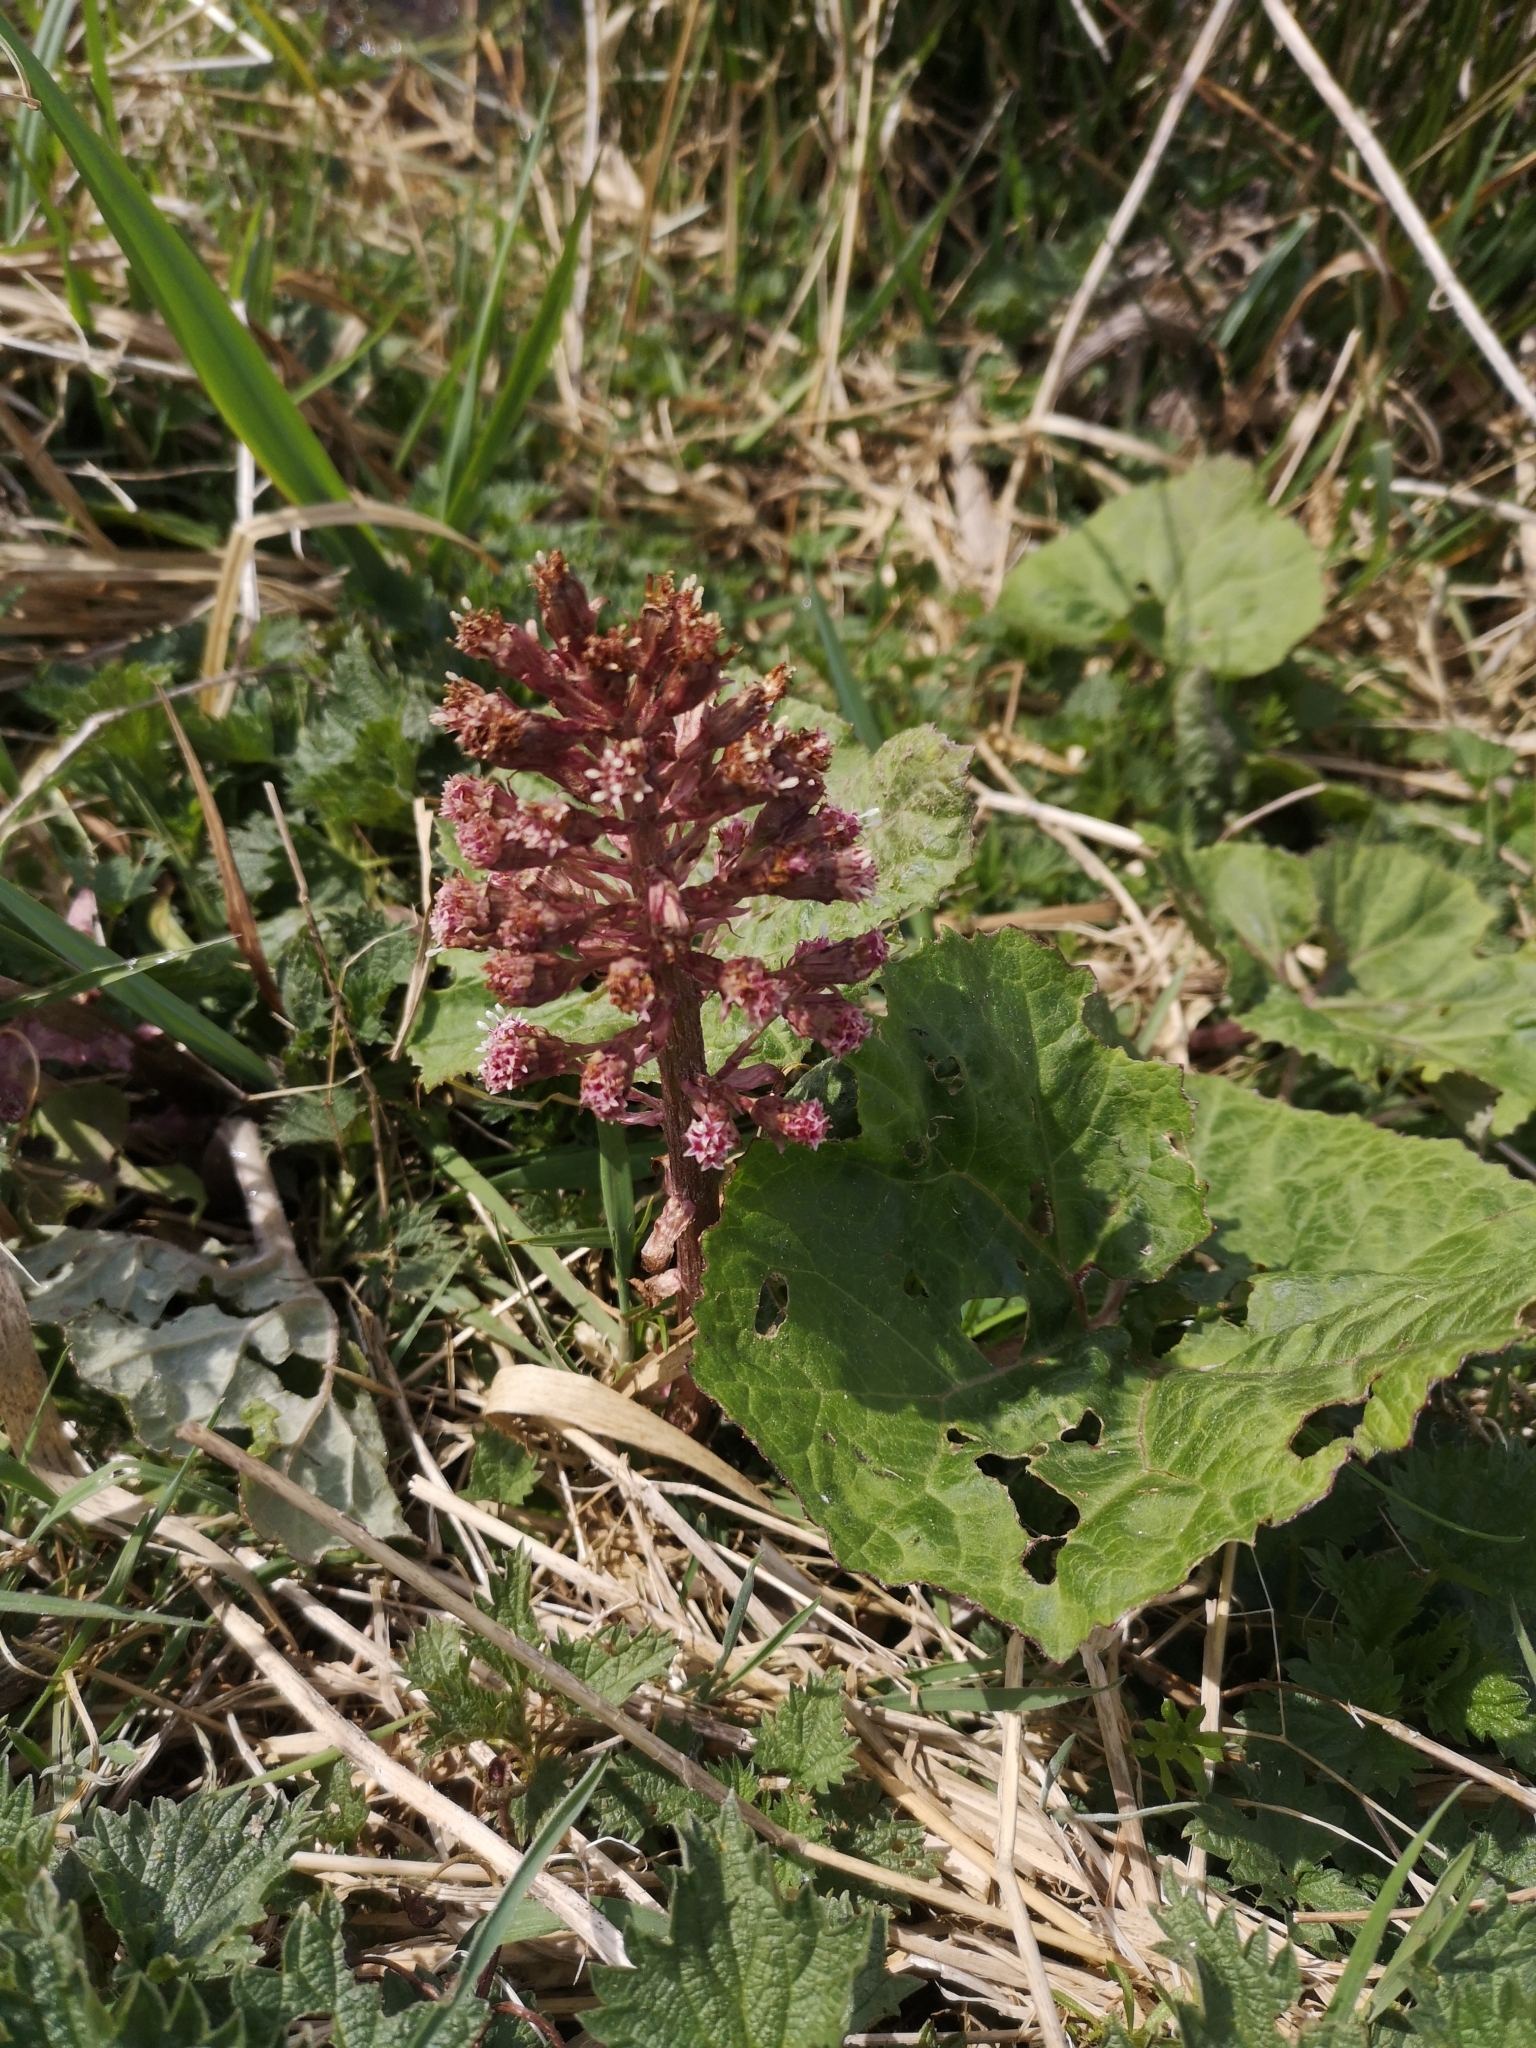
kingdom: Plantae
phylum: Tracheophyta
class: Magnoliopsida
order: Asterales
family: Asteraceae
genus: Petasites
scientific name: Petasites hybridus
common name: Butterbur
